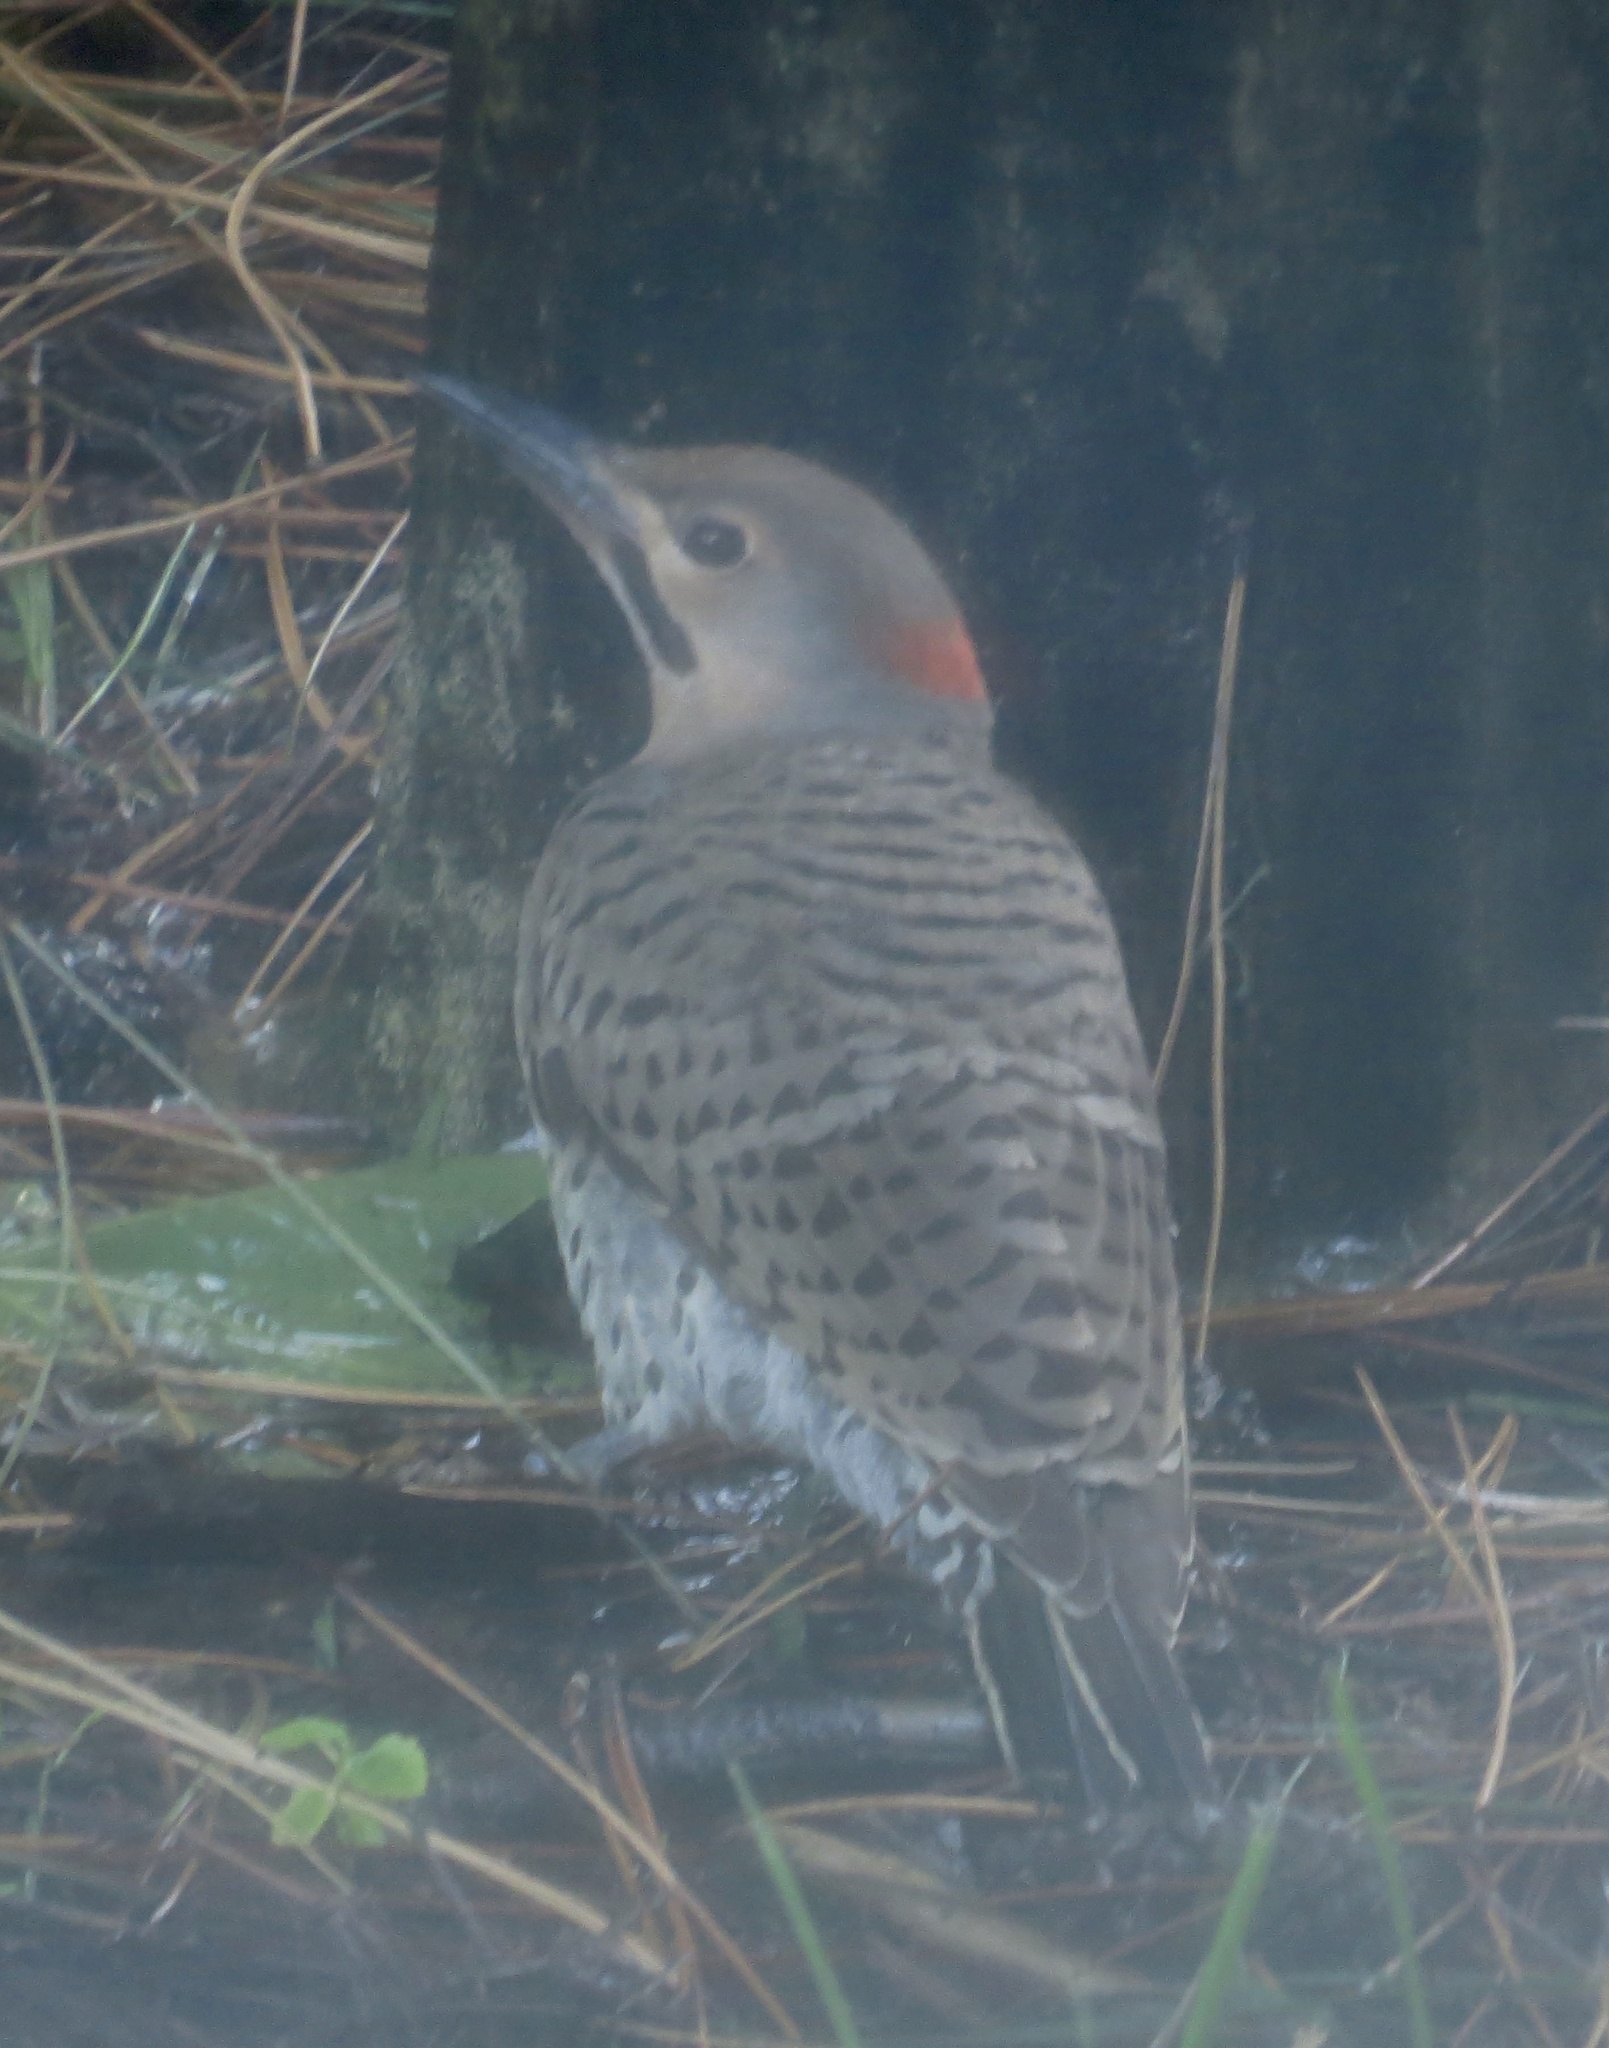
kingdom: Animalia
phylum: Chordata
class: Aves
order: Piciformes
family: Picidae
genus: Colaptes
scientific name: Colaptes auratus
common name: Northern flicker
